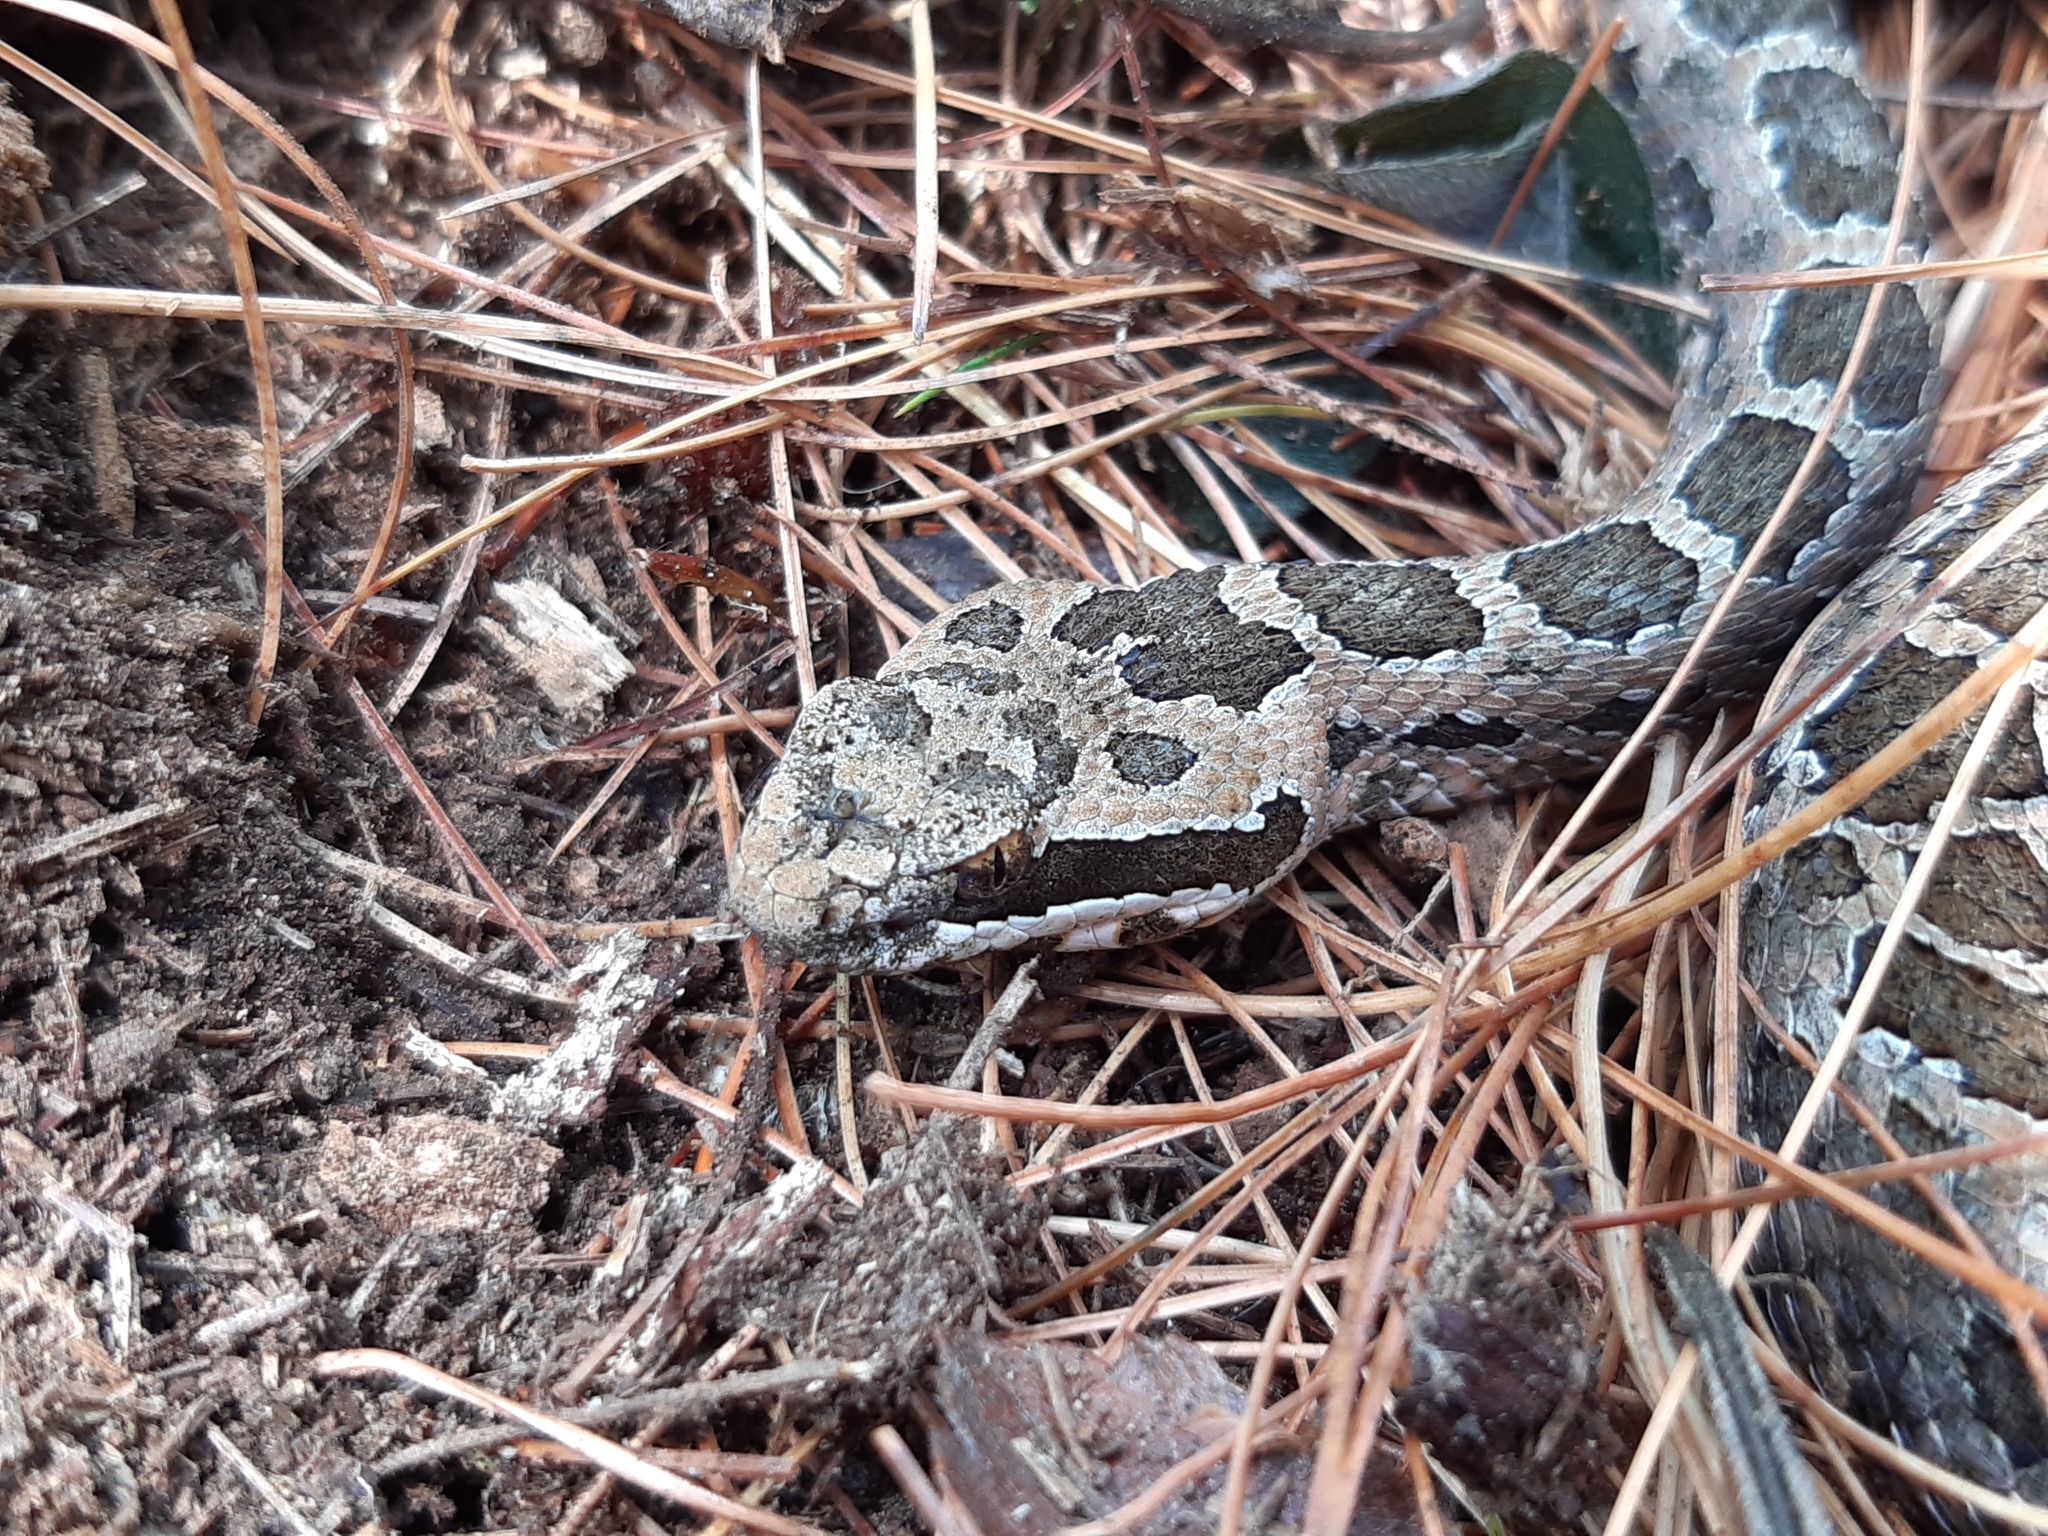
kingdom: Animalia
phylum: Chordata
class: Squamata
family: Viperidae
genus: Crotalus
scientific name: Crotalus armstrongi
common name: Mexican dusky rattlesnake
